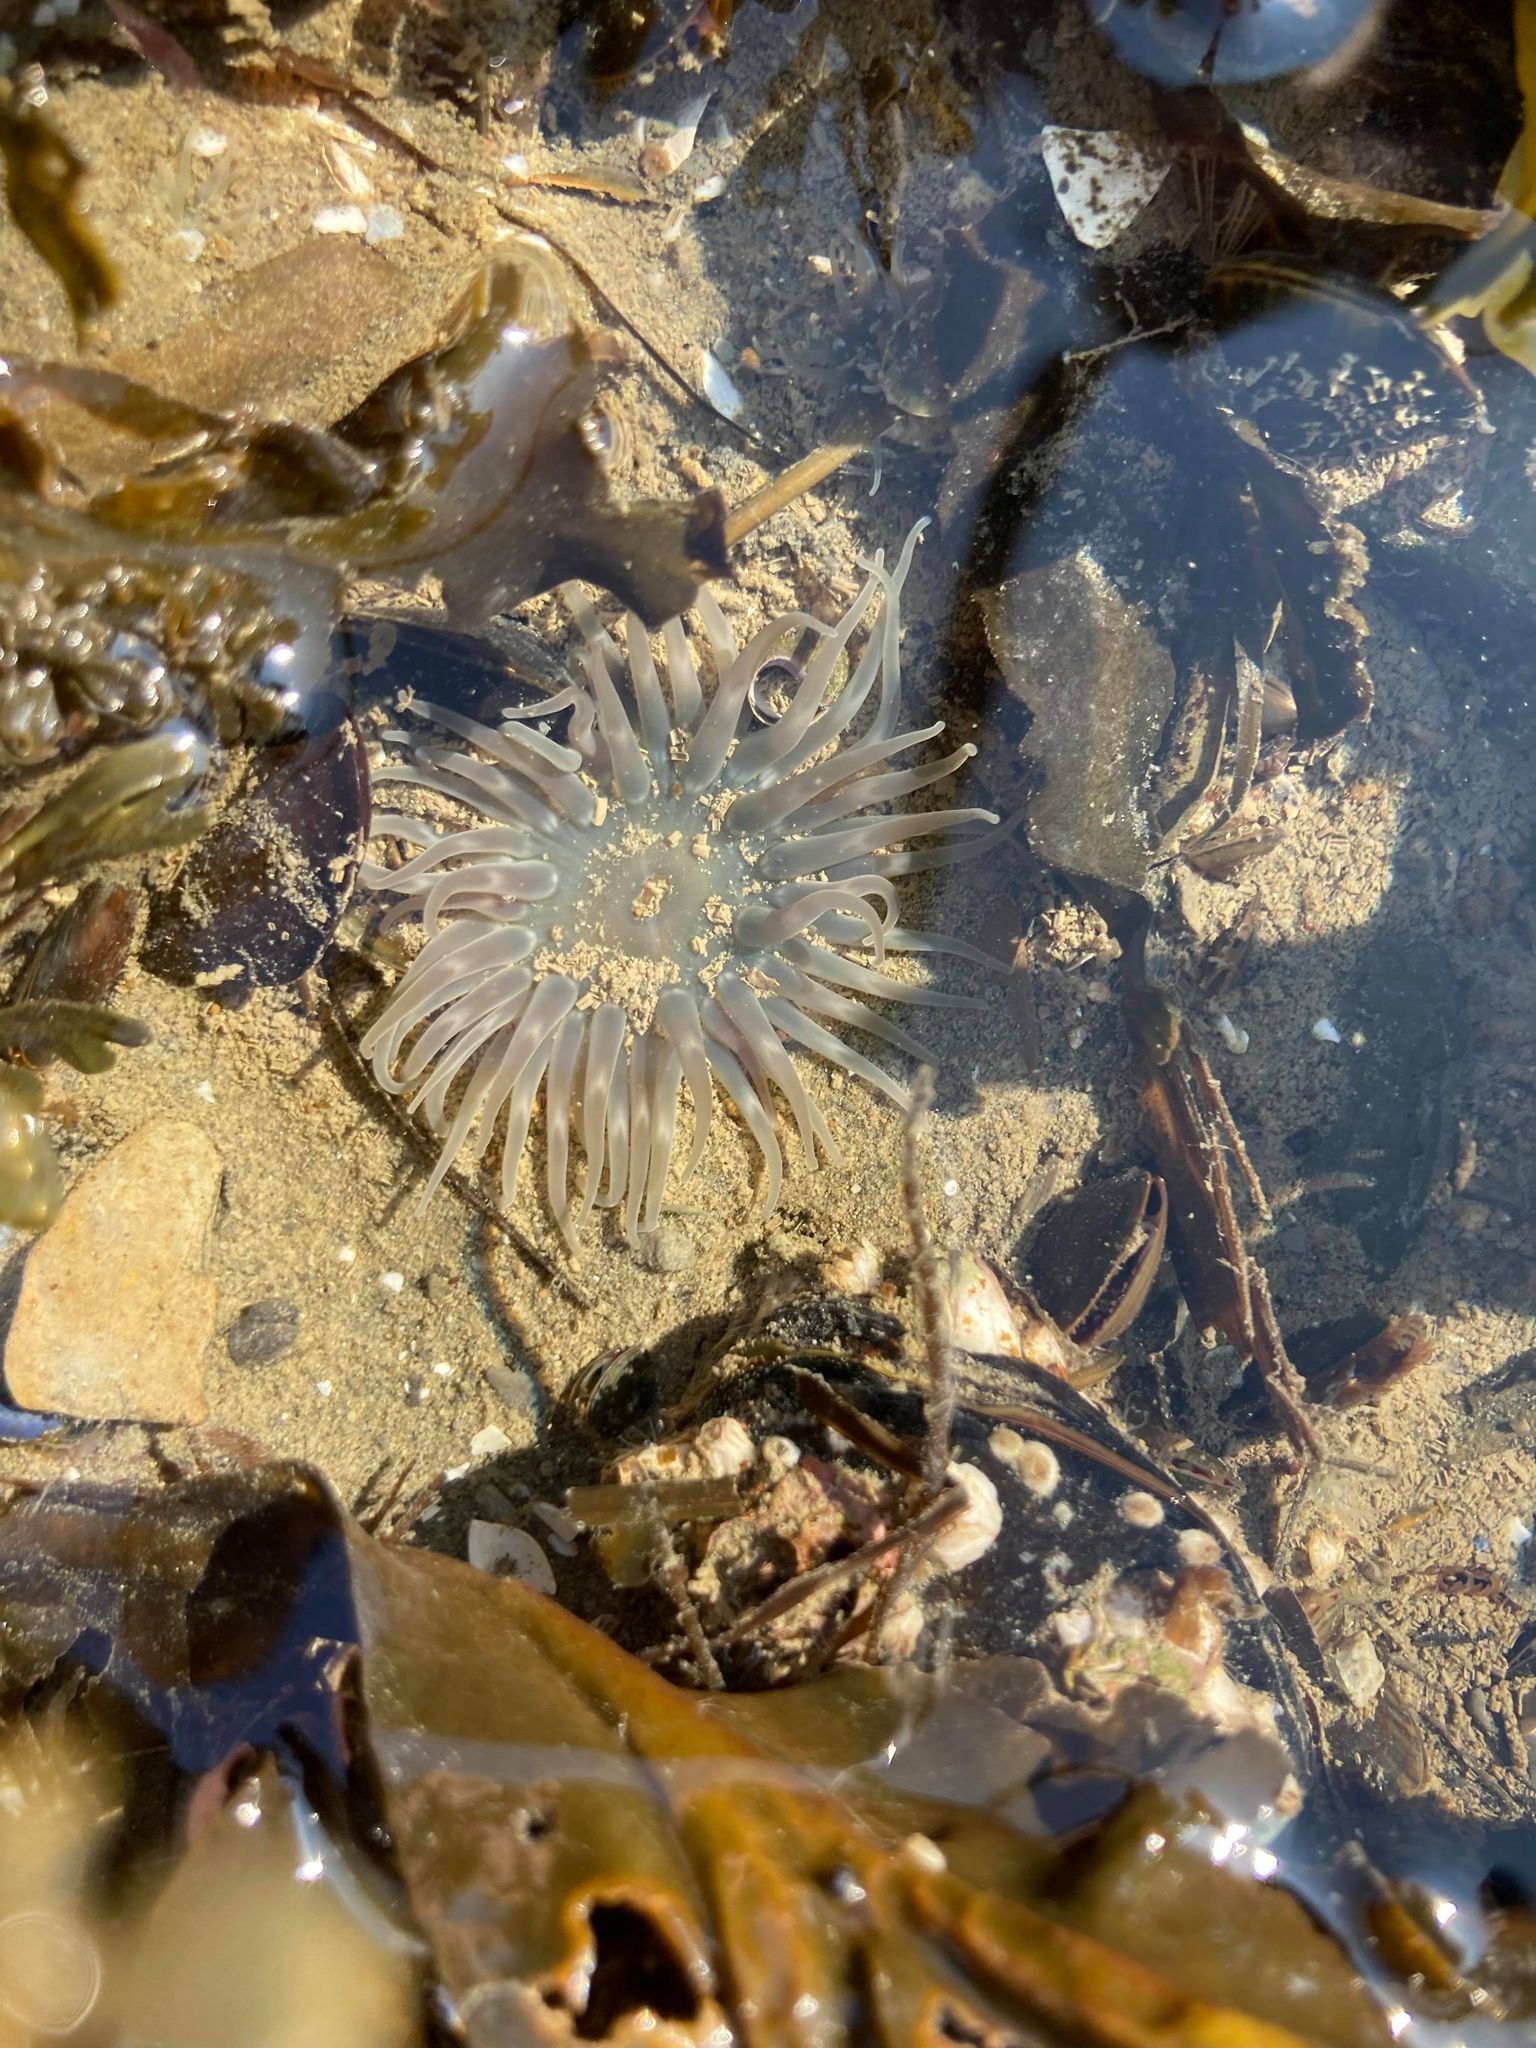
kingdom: Animalia
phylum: Cnidaria
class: Anthozoa
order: Actiniaria
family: Actiniidae
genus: Aulactinia
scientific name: Aulactinia stella
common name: Silver-spotted sea anemone
